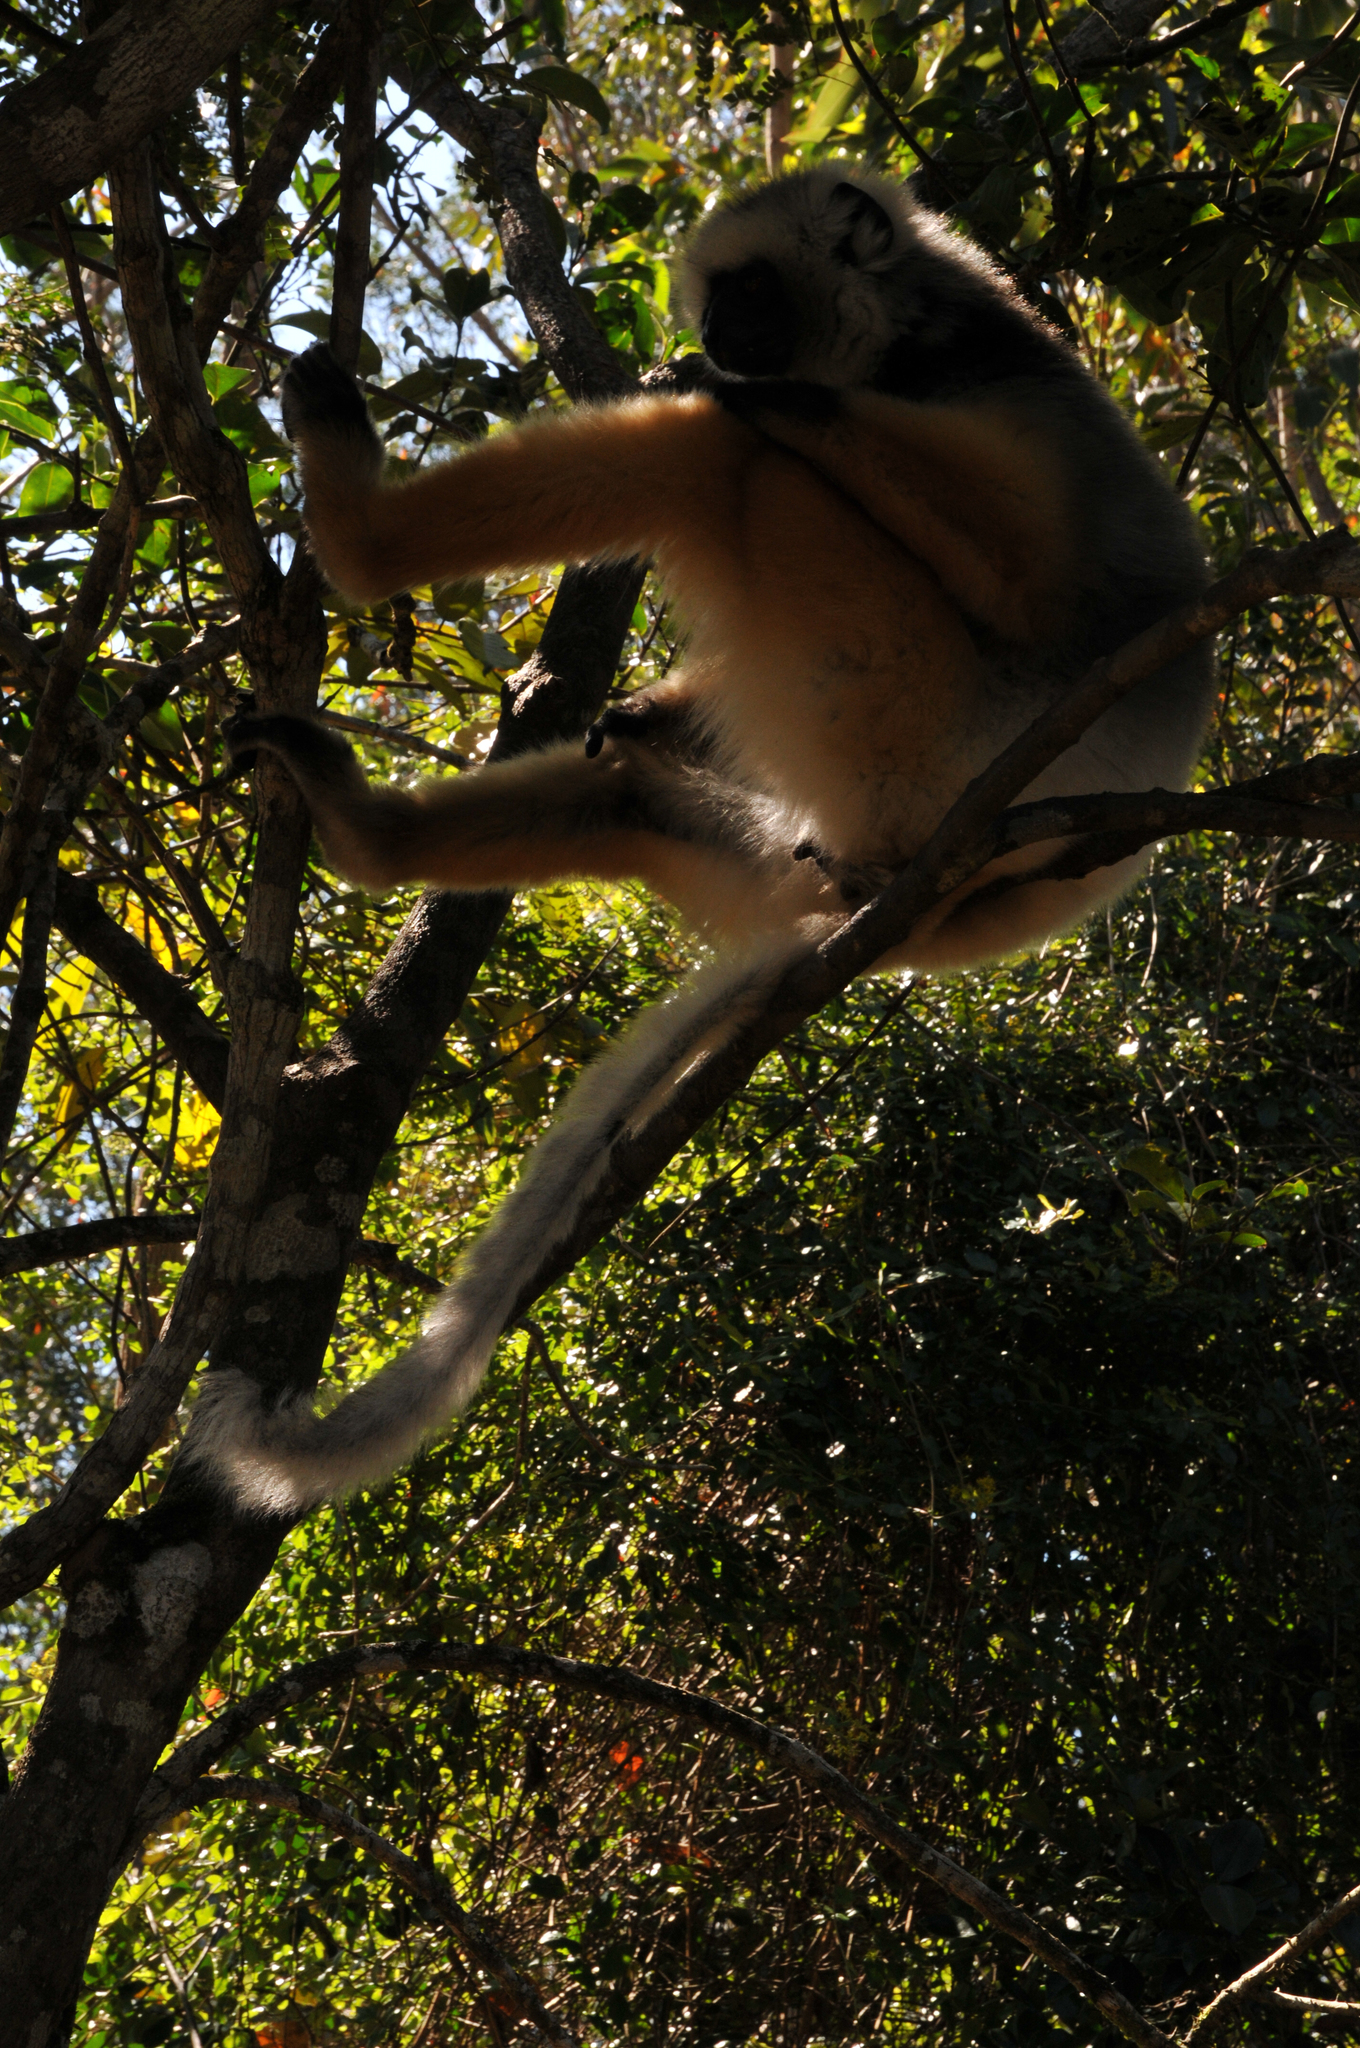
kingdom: Animalia
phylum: Chordata
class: Mammalia
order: Primates
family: Indriidae
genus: Propithecus
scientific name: Propithecus diadema
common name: Diademed sifaka
